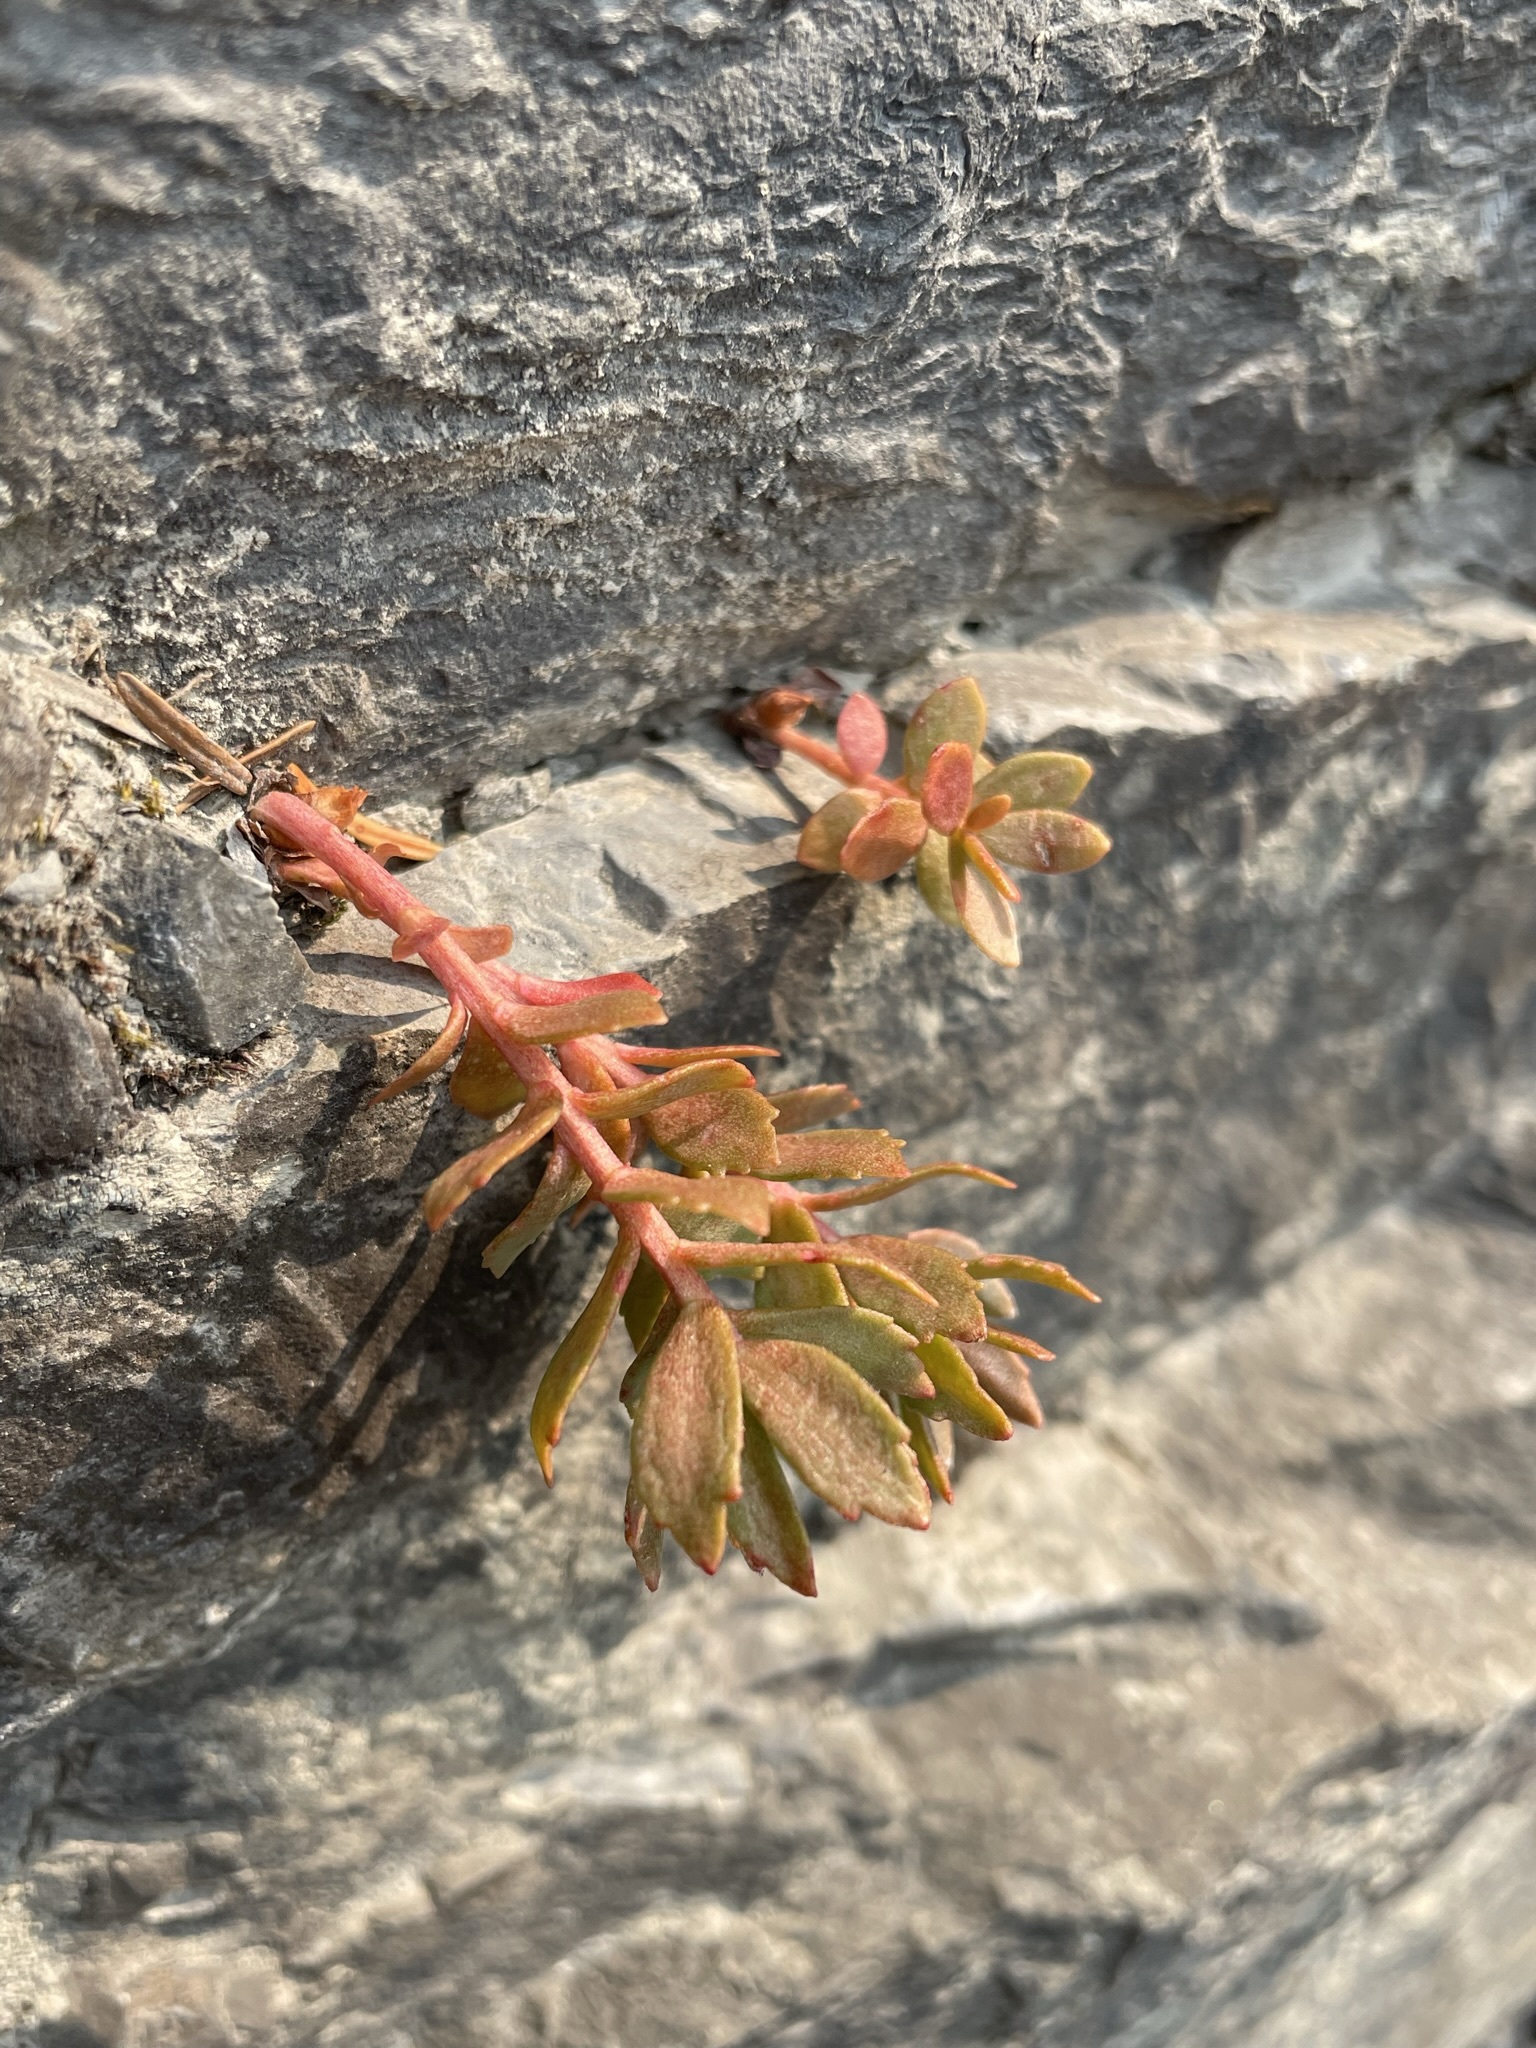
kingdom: Plantae
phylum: Tracheophyta
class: Magnoliopsida
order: Saxifragales
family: Crassulaceae
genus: Rhodiola
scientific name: Rhodiola integrifolia
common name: Western roseroot
